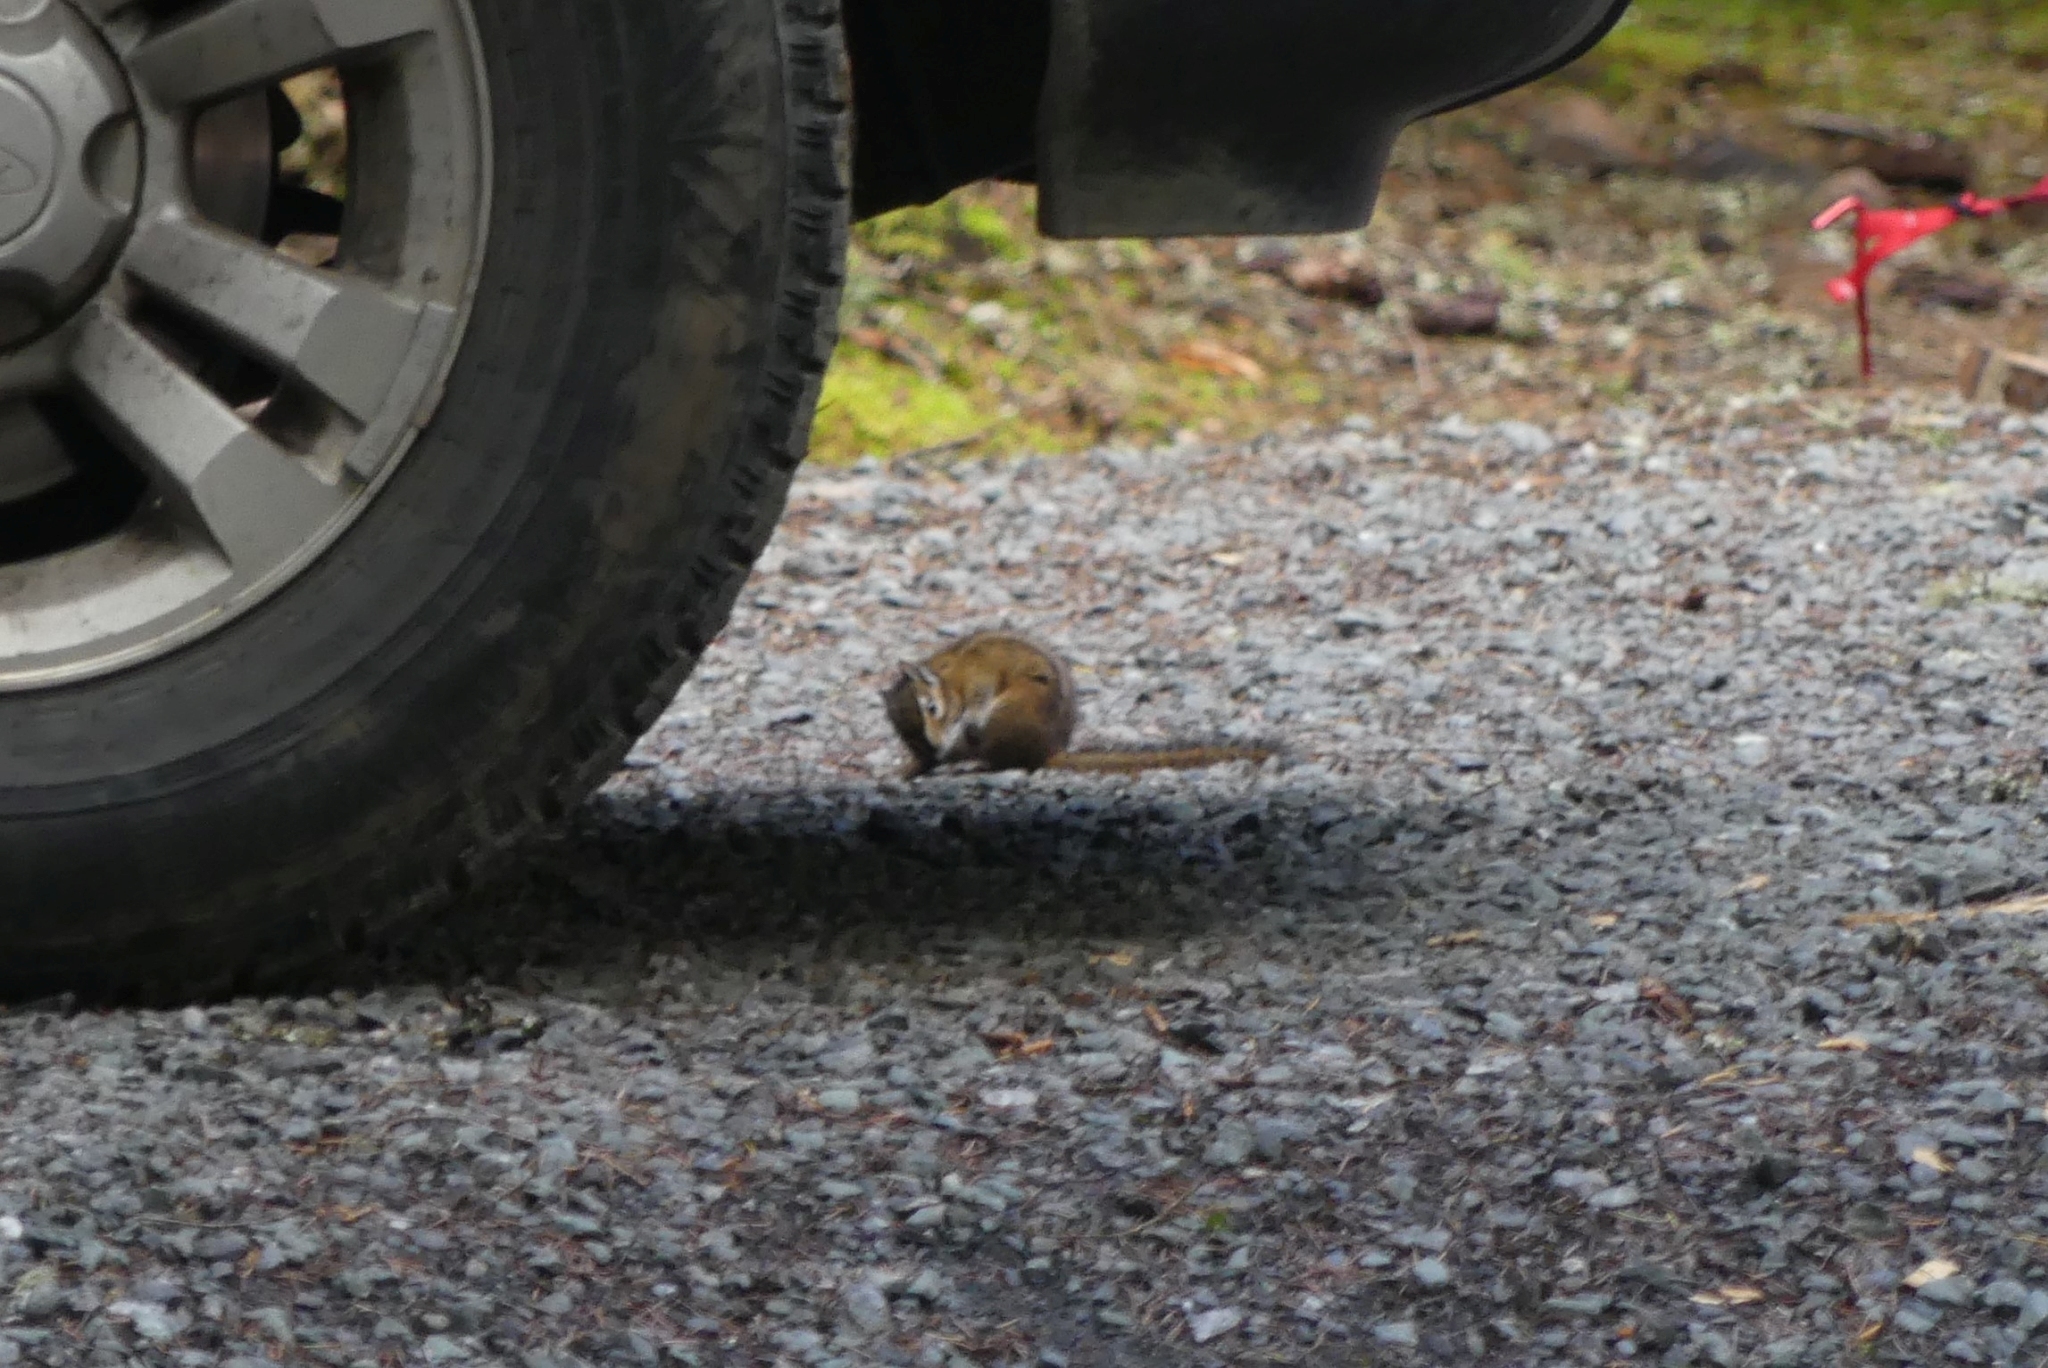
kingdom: Animalia
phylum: Chordata
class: Mammalia
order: Rodentia
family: Sciuridae
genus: Tamias
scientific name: Tamias townsendii
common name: Townsend's chipmunk
